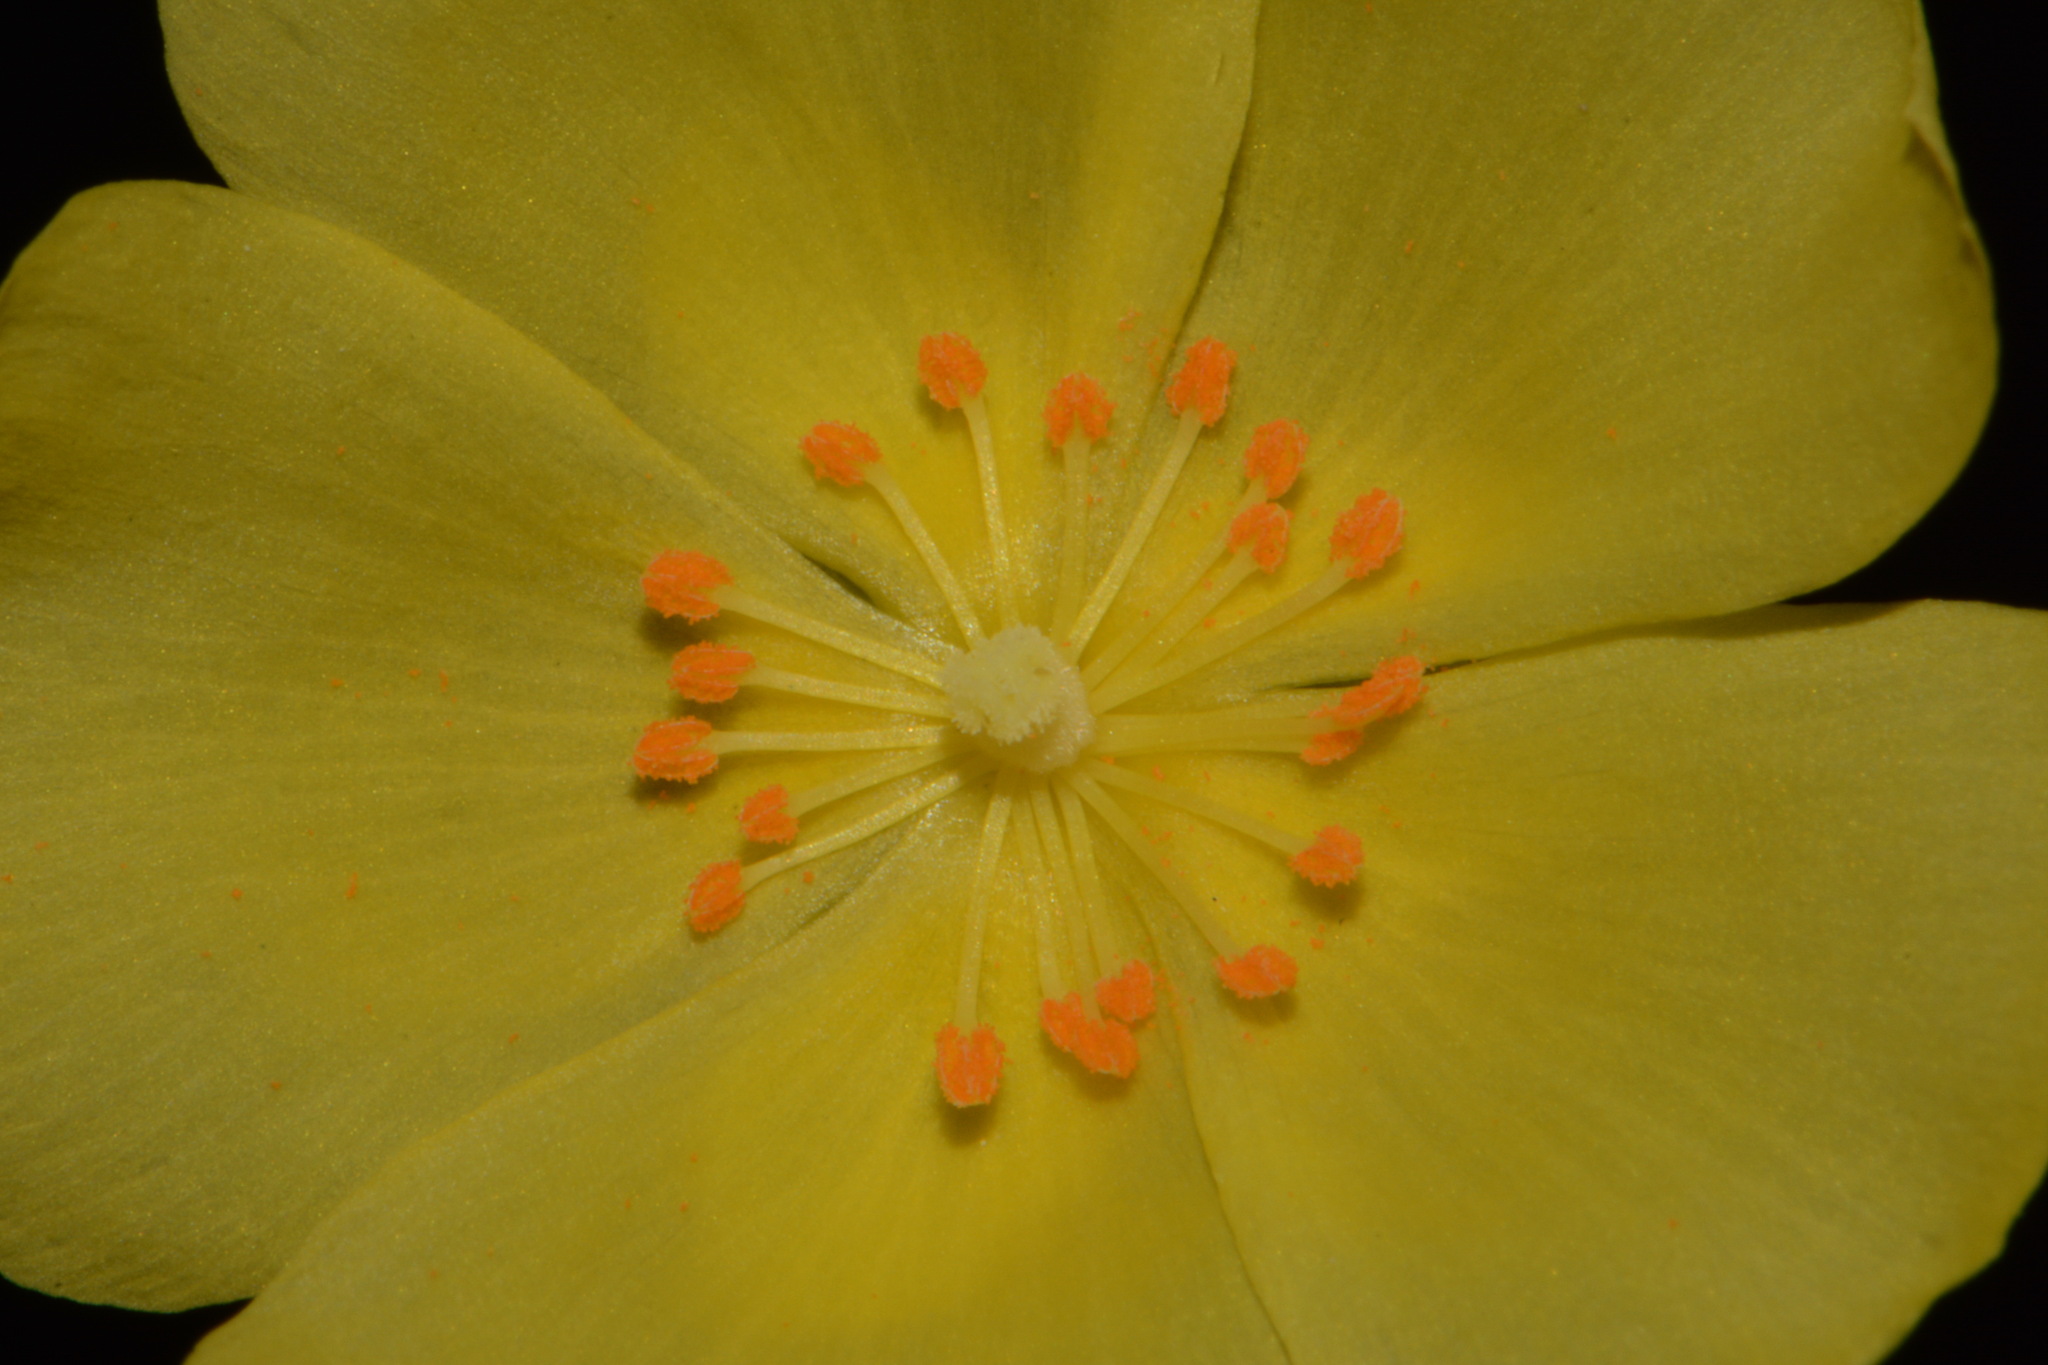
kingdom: Plantae
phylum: Tracheophyta
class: Magnoliopsida
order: Malvales
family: Cistaceae
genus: Crocanthemum
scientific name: Crocanthemum arenicola
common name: Gulf coast frostweed
